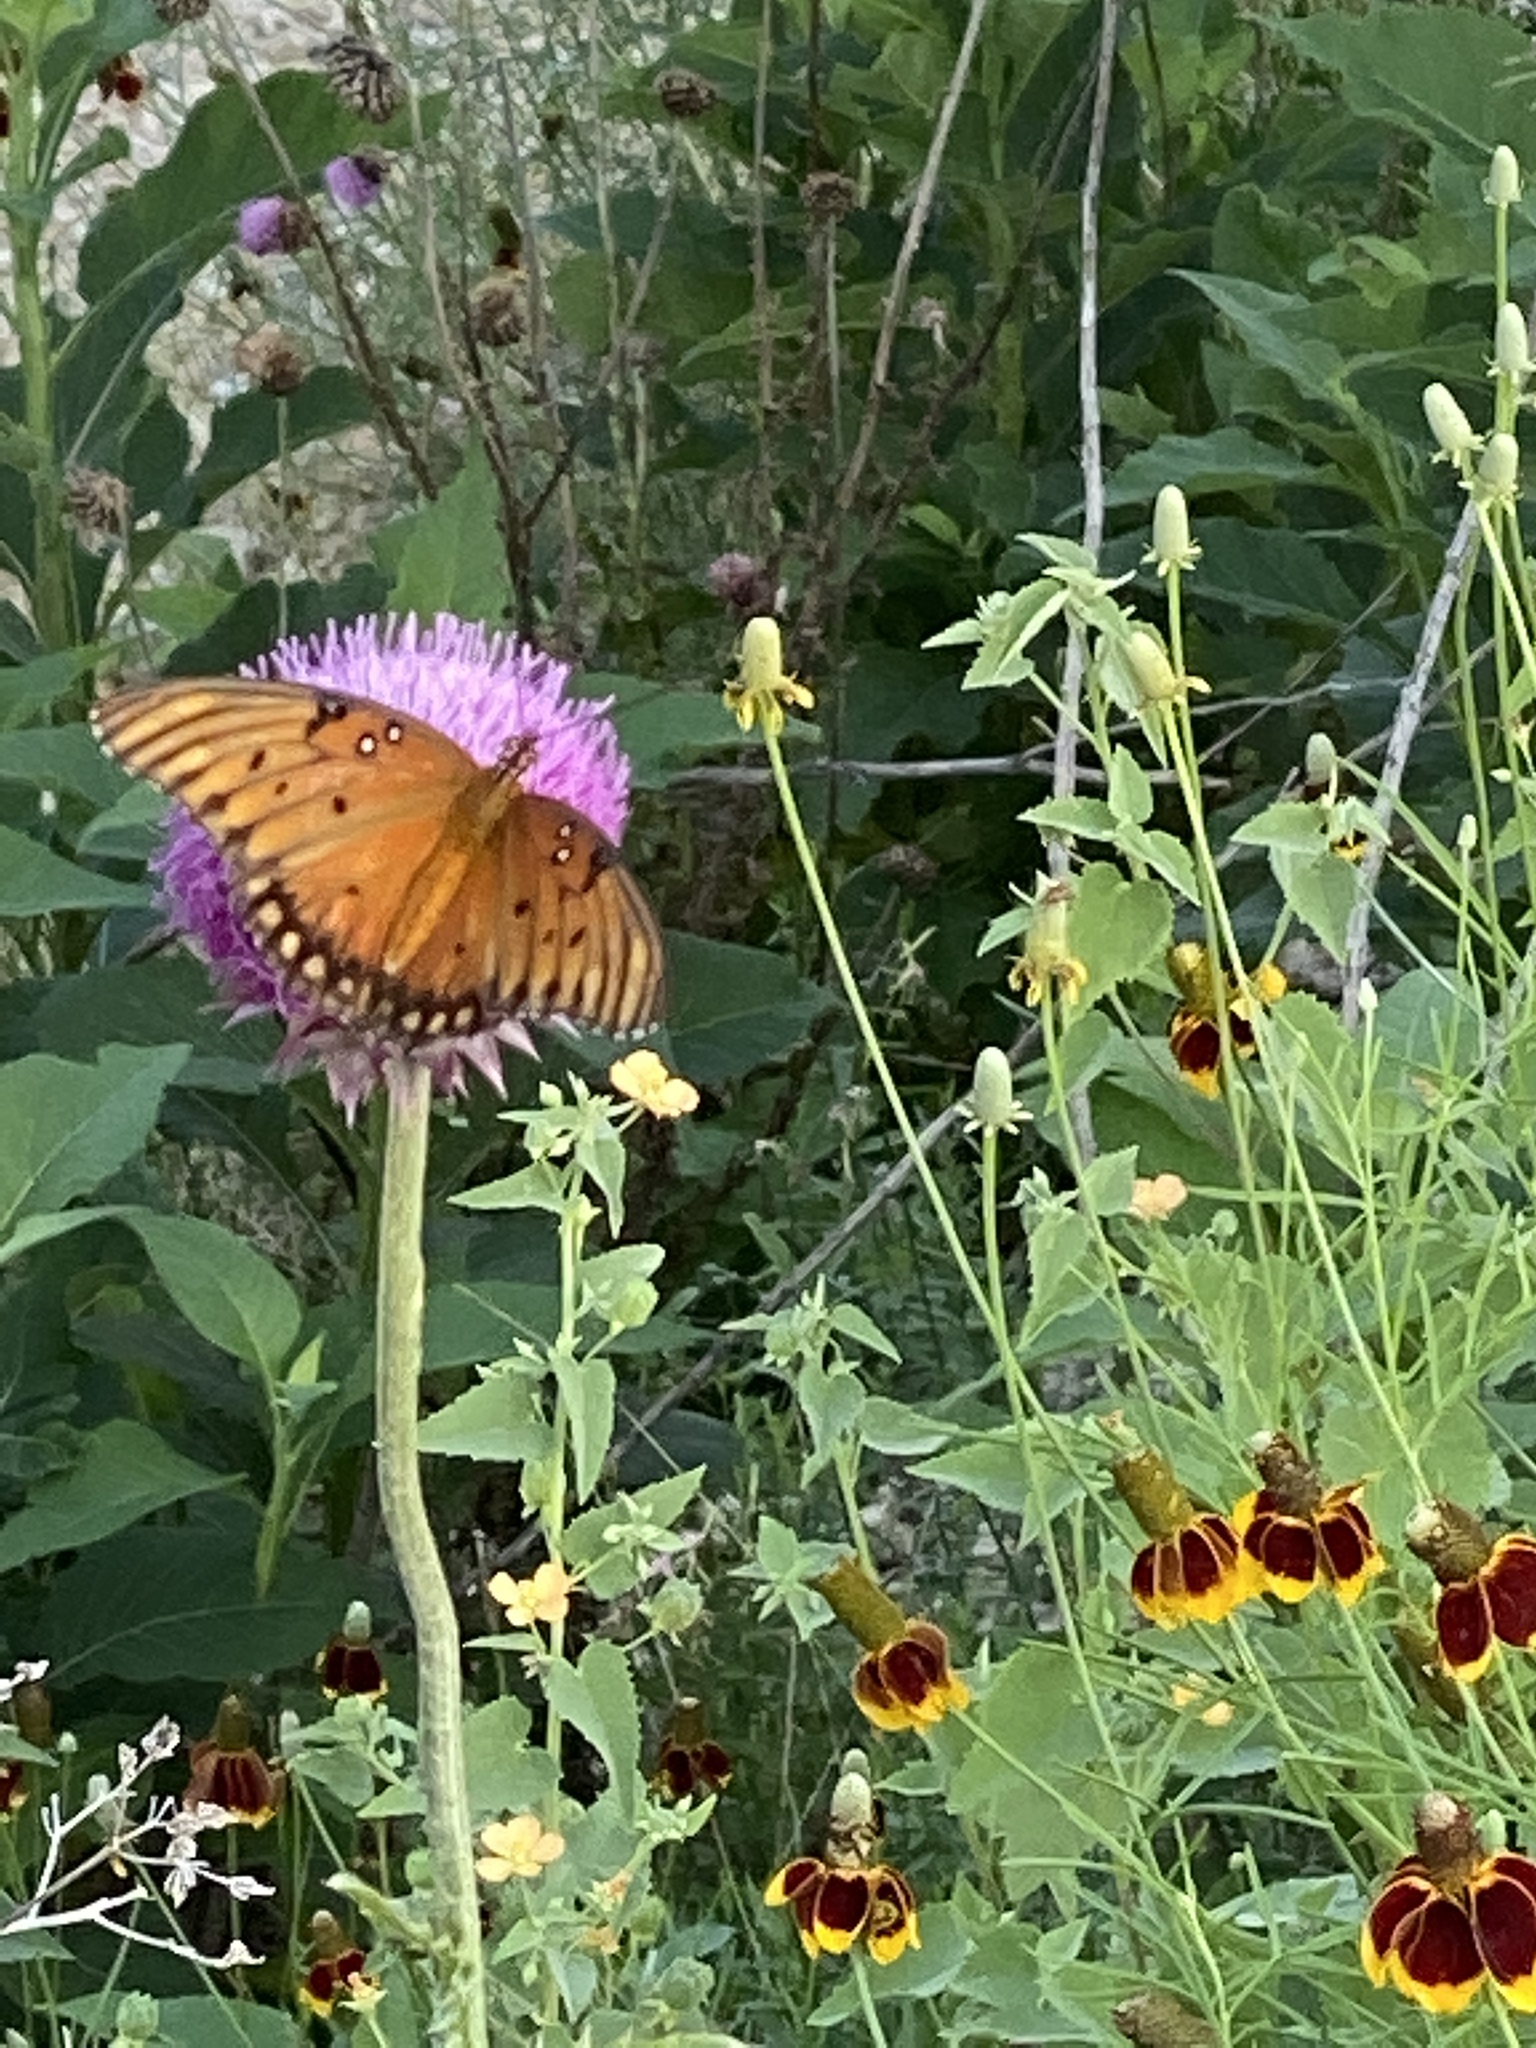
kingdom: Animalia
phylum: Arthropoda
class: Insecta
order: Lepidoptera
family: Nymphalidae
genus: Dione
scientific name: Dione vanillae
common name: Gulf fritillary
